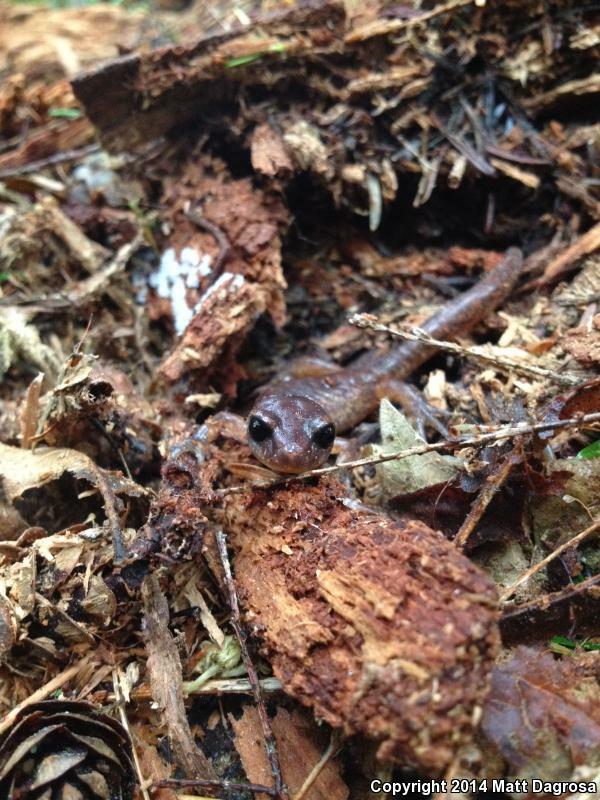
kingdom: Animalia
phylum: Chordata
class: Amphibia
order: Caudata
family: Plethodontidae
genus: Ensatina
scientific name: Ensatina eschscholtzii
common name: Ensatina
